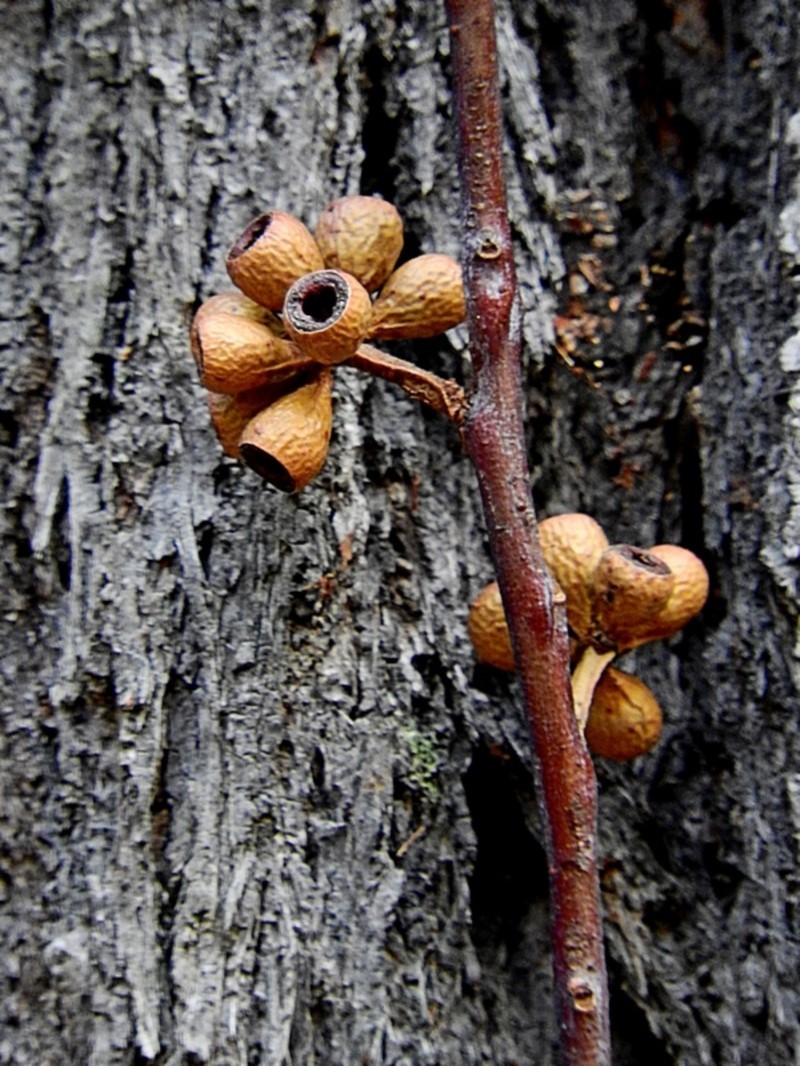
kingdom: Plantae
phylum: Tracheophyta
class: Magnoliopsida
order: Myrtales
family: Myrtaceae
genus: Eucalyptus
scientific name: Eucalyptus sieberi
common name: Black-ash
